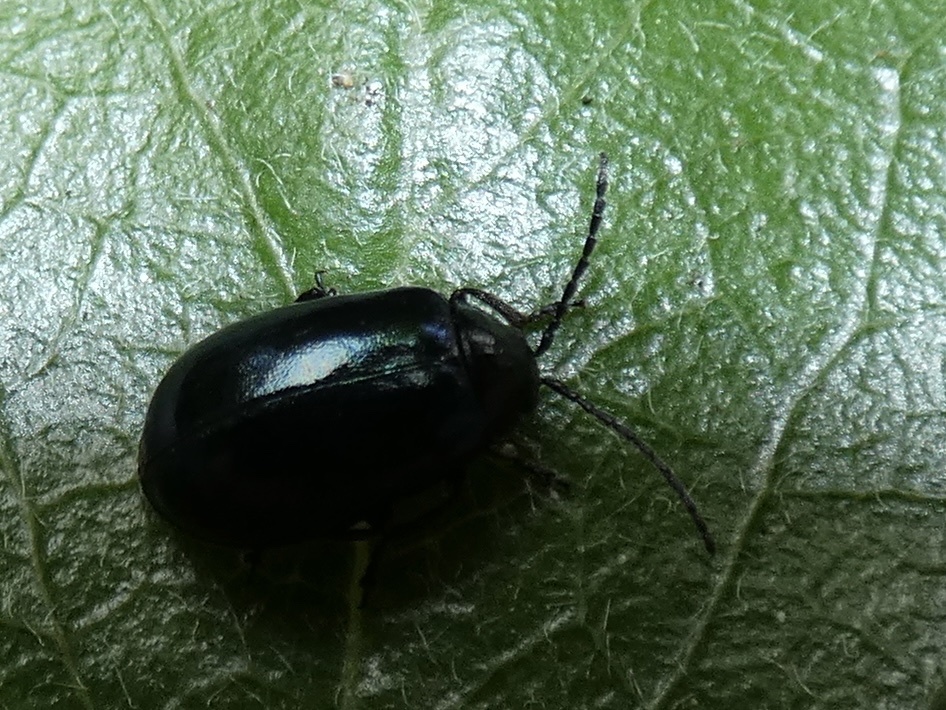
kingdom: Animalia
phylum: Arthropoda
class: Insecta
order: Coleoptera
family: Chrysomelidae
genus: Agelastica
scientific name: Agelastica alni
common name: Alder leaf beetle
